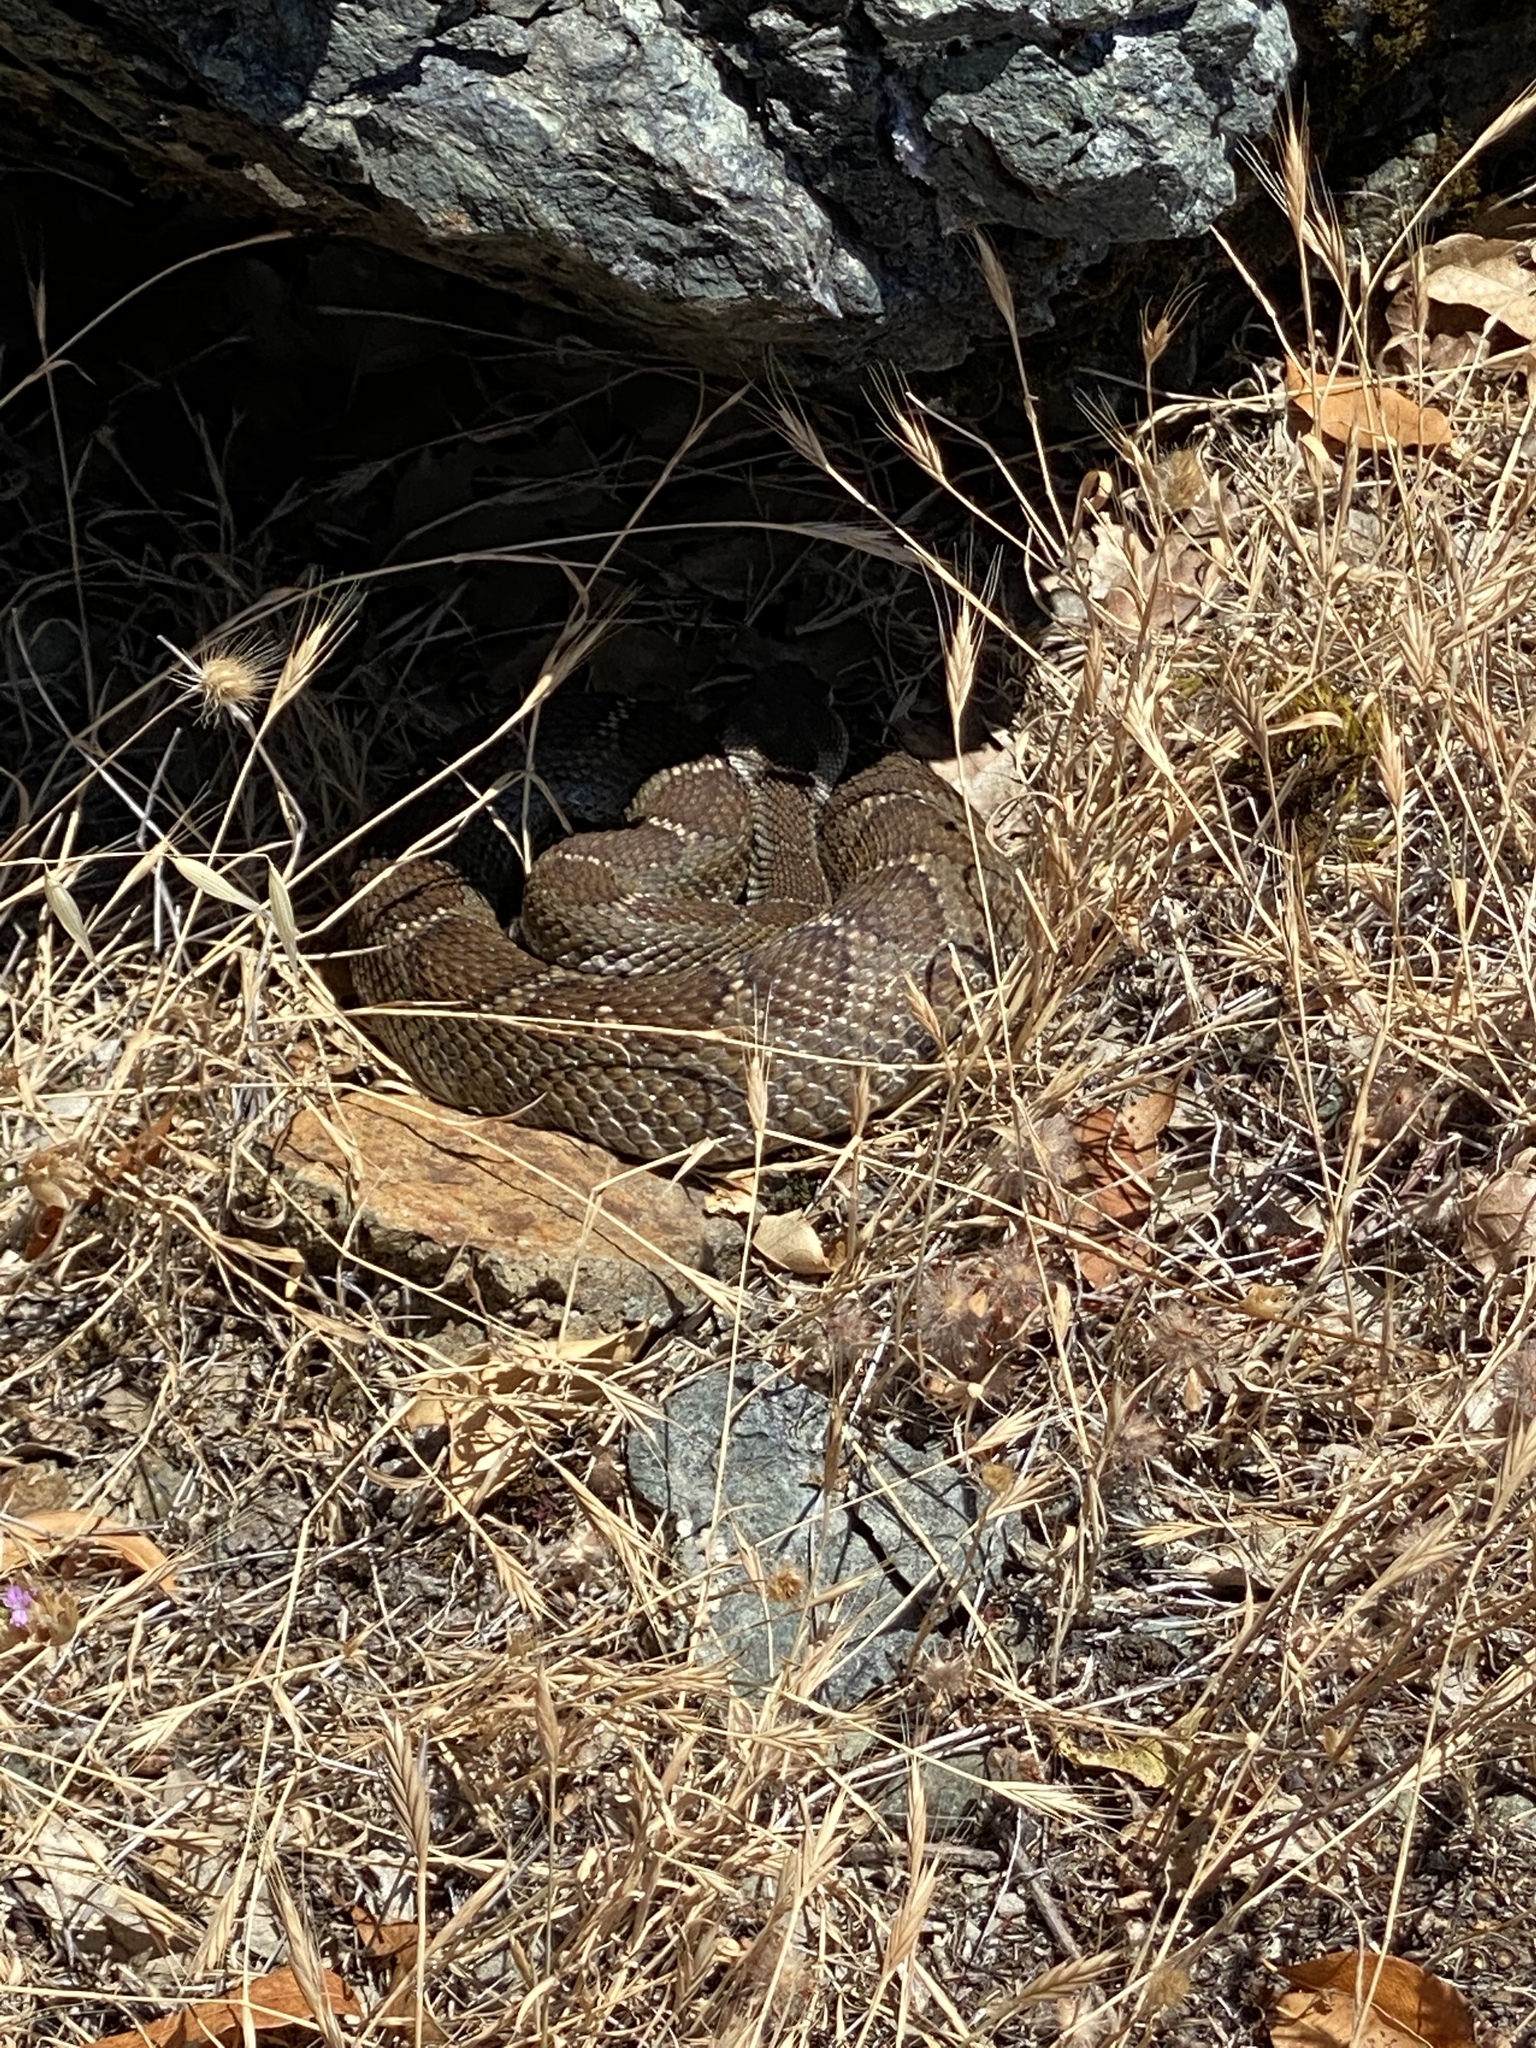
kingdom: Animalia
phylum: Chordata
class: Squamata
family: Viperidae
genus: Crotalus
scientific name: Crotalus oreganus
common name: Abyssus
